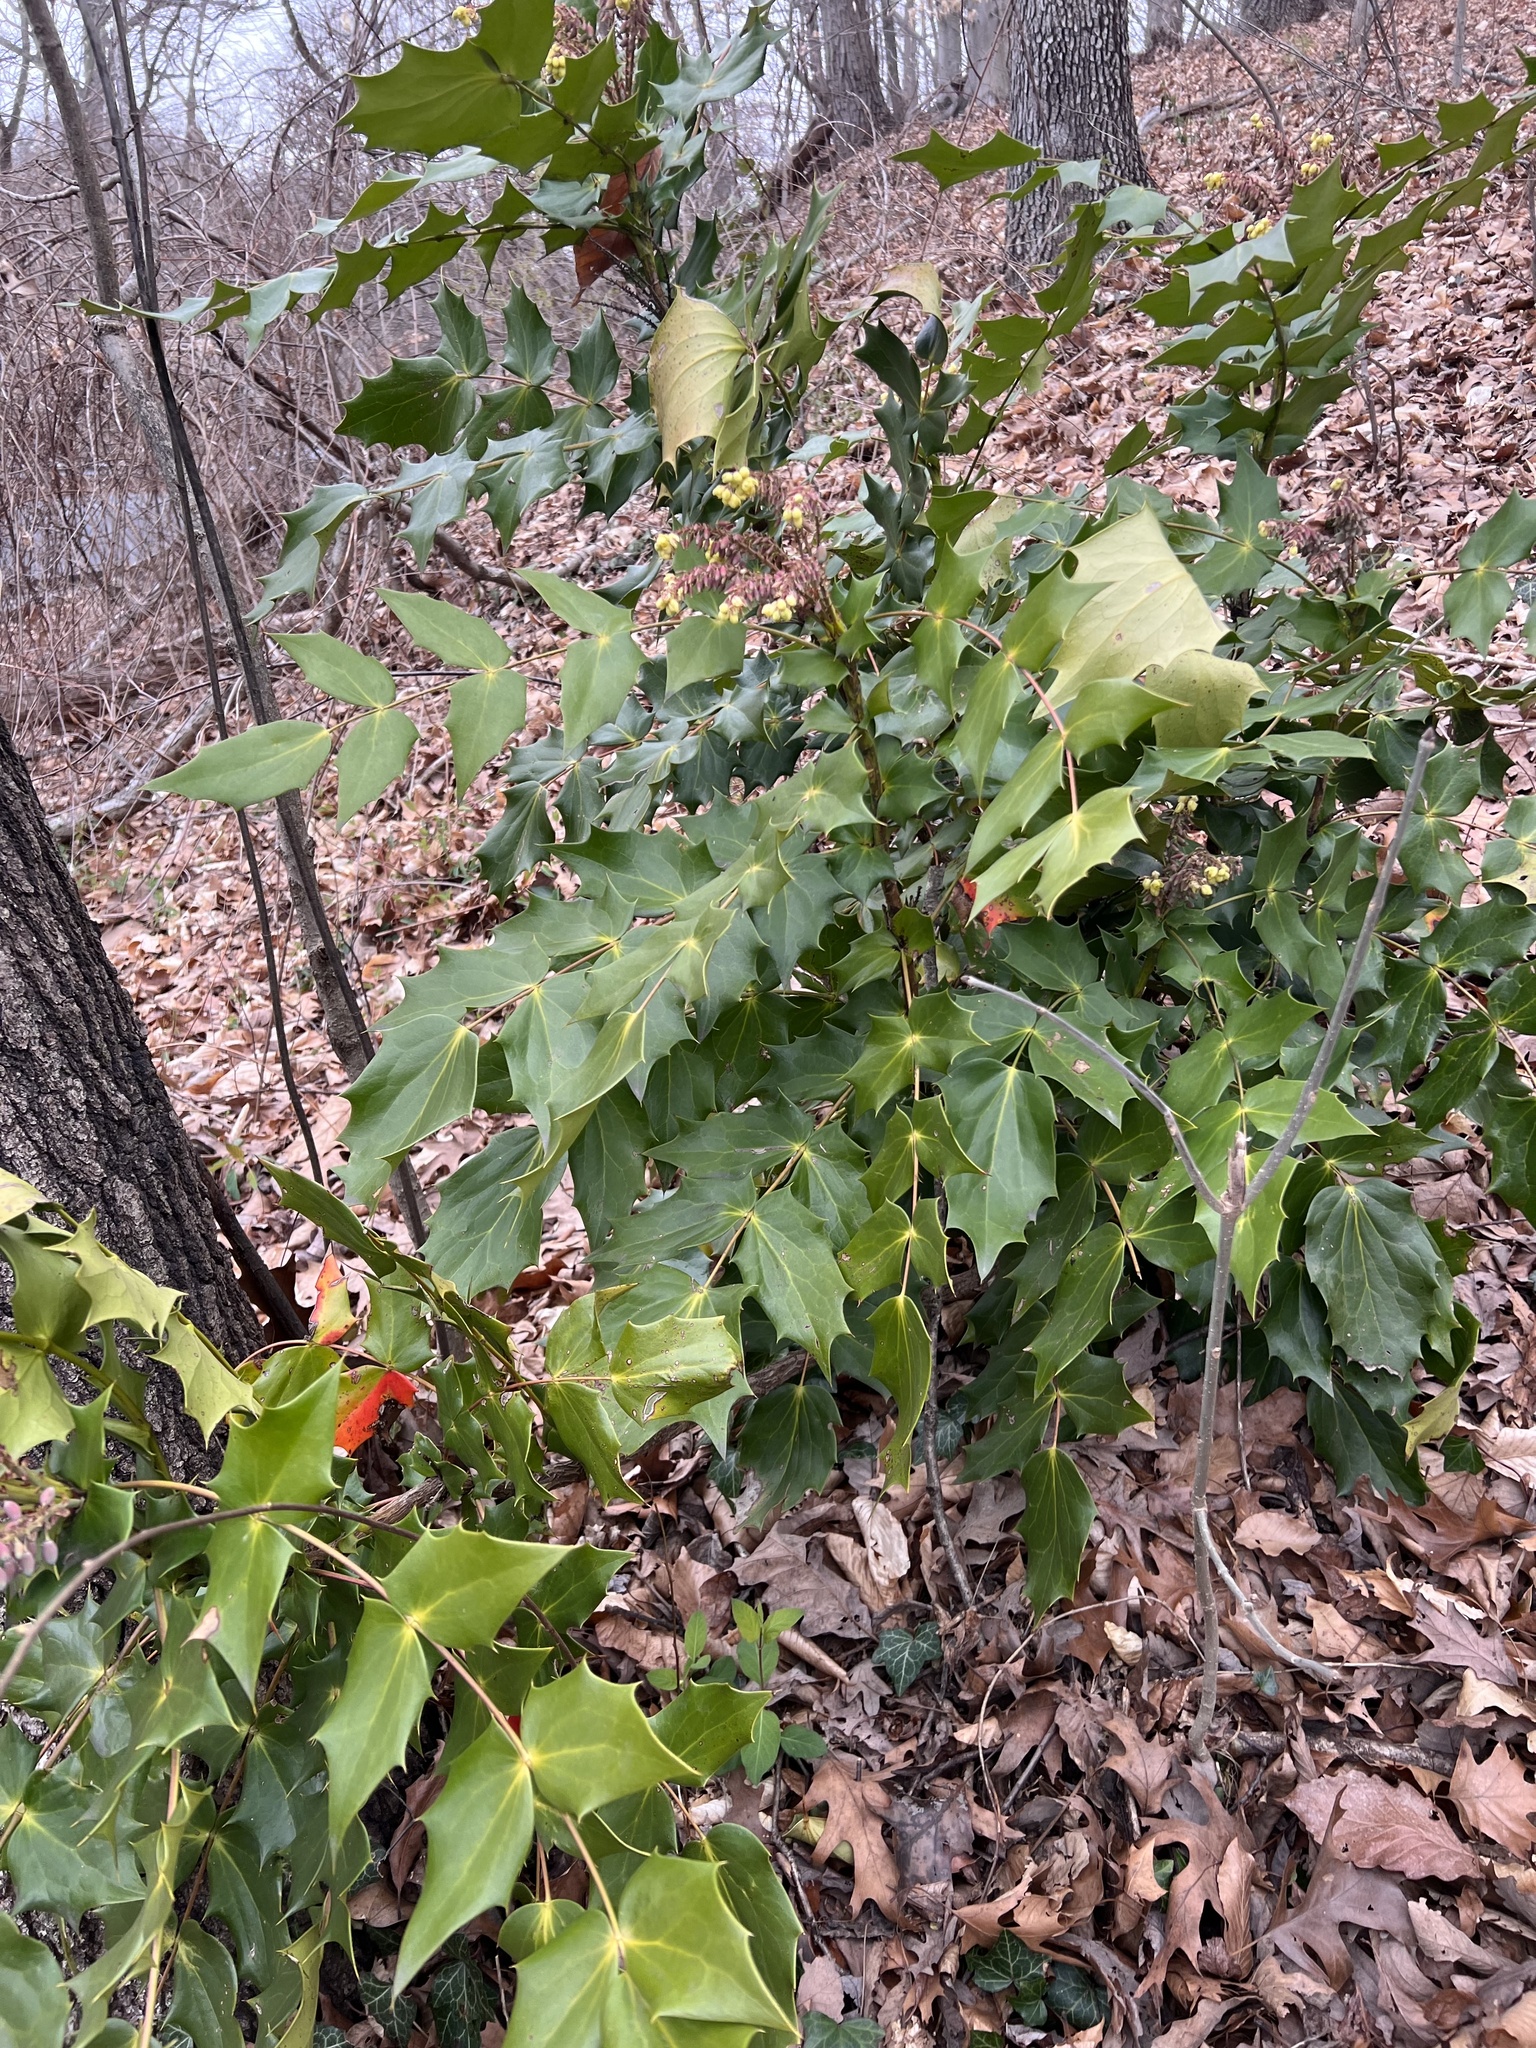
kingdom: Plantae
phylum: Tracheophyta
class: Magnoliopsida
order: Ranunculales
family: Berberidaceae
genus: Mahonia
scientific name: Mahonia bealei
